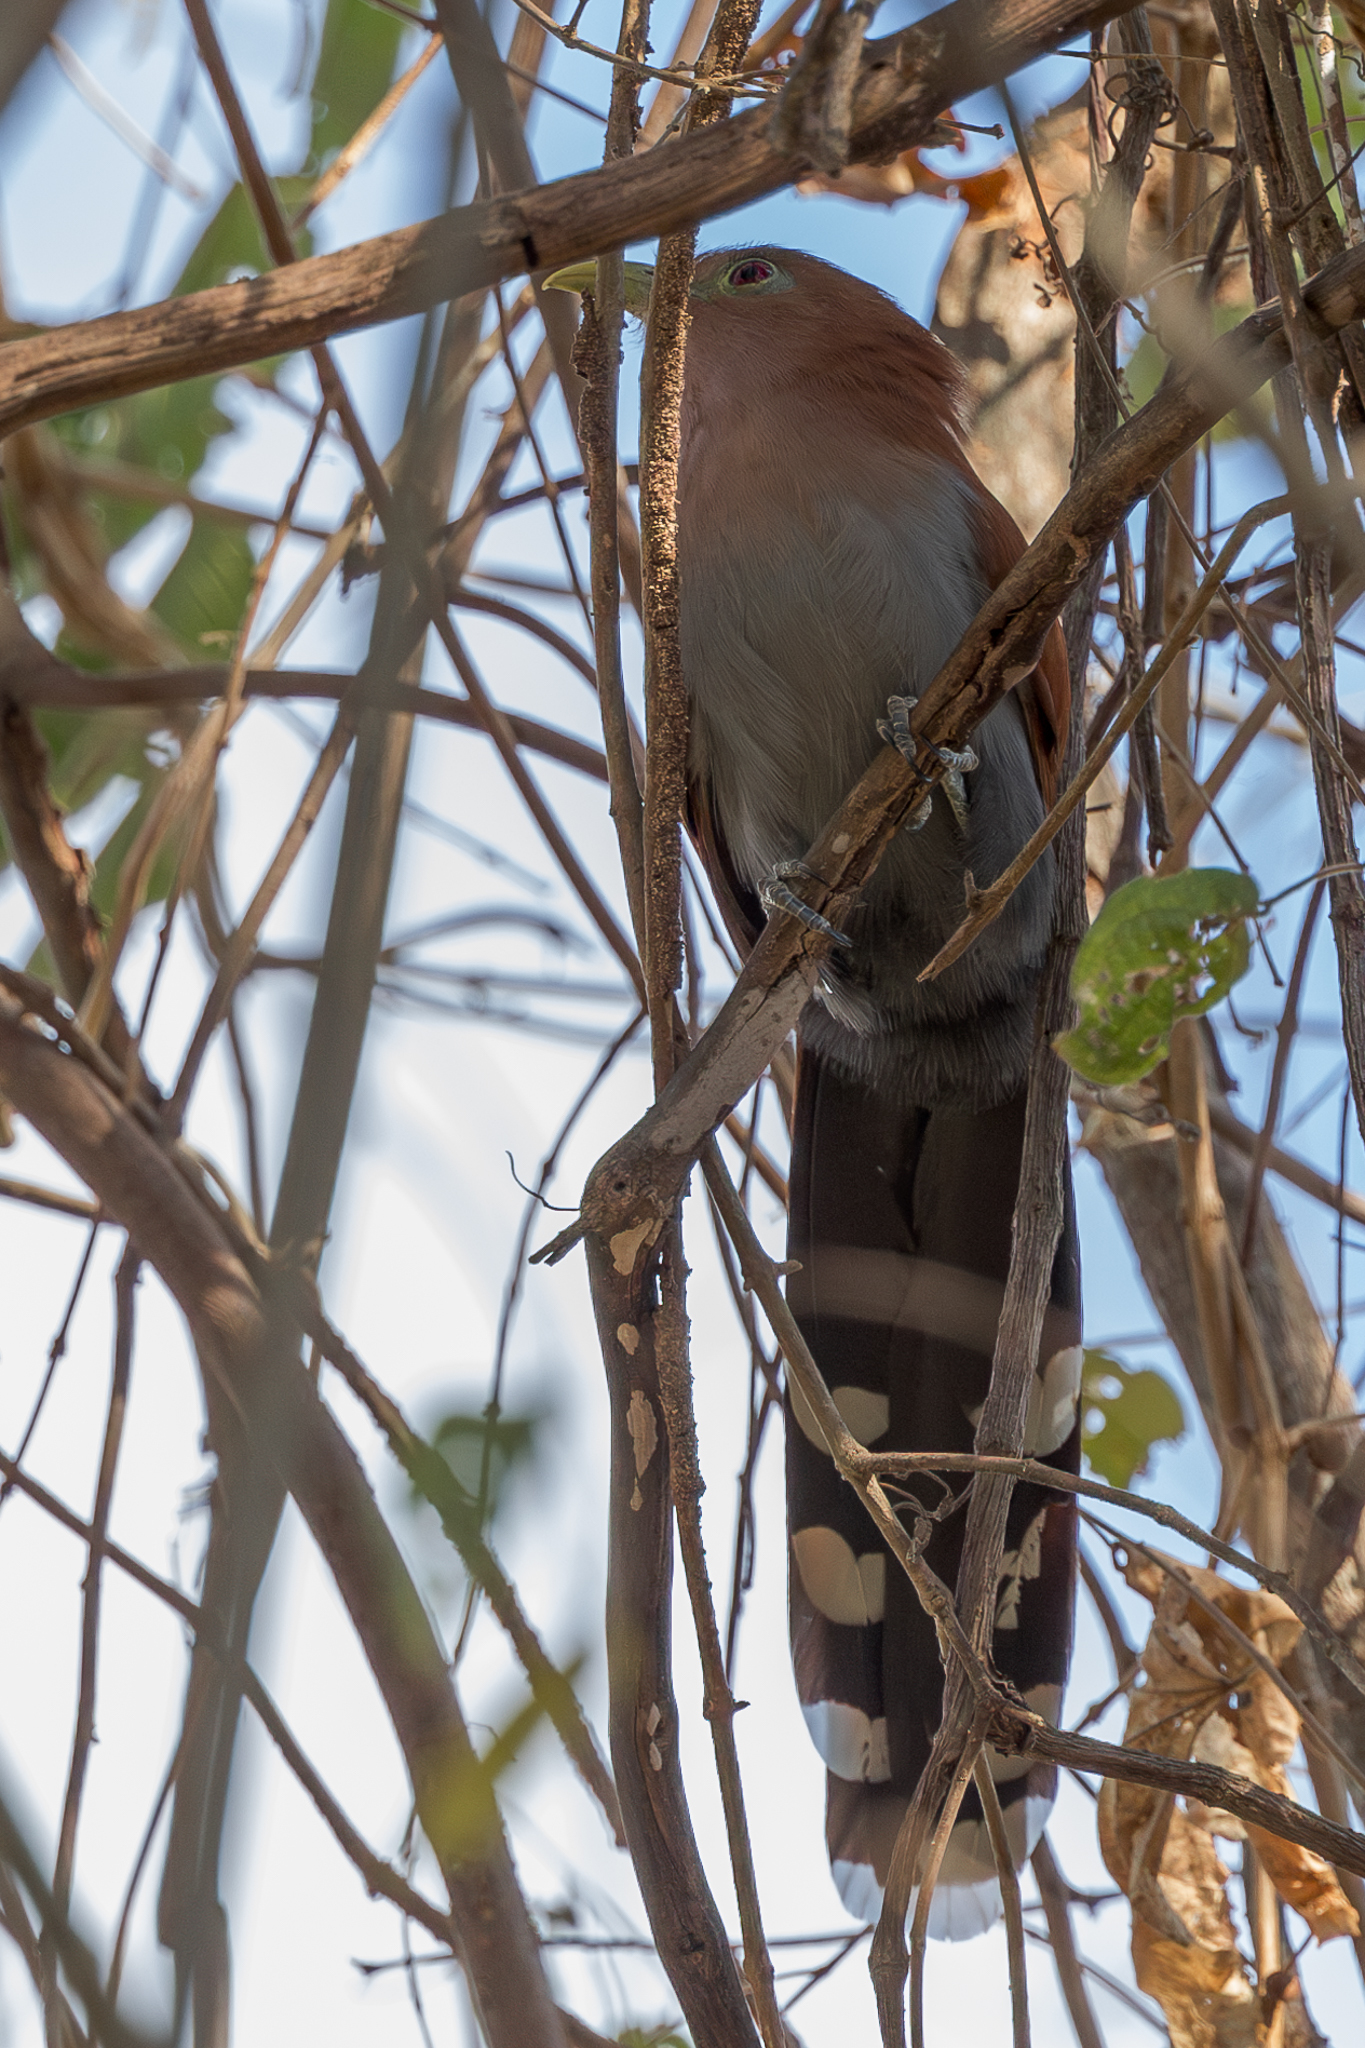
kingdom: Animalia
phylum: Chordata
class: Aves
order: Cuculiformes
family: Cuculidae
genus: Piaya
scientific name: Piaya cayana
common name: Squirrel cuckoo
